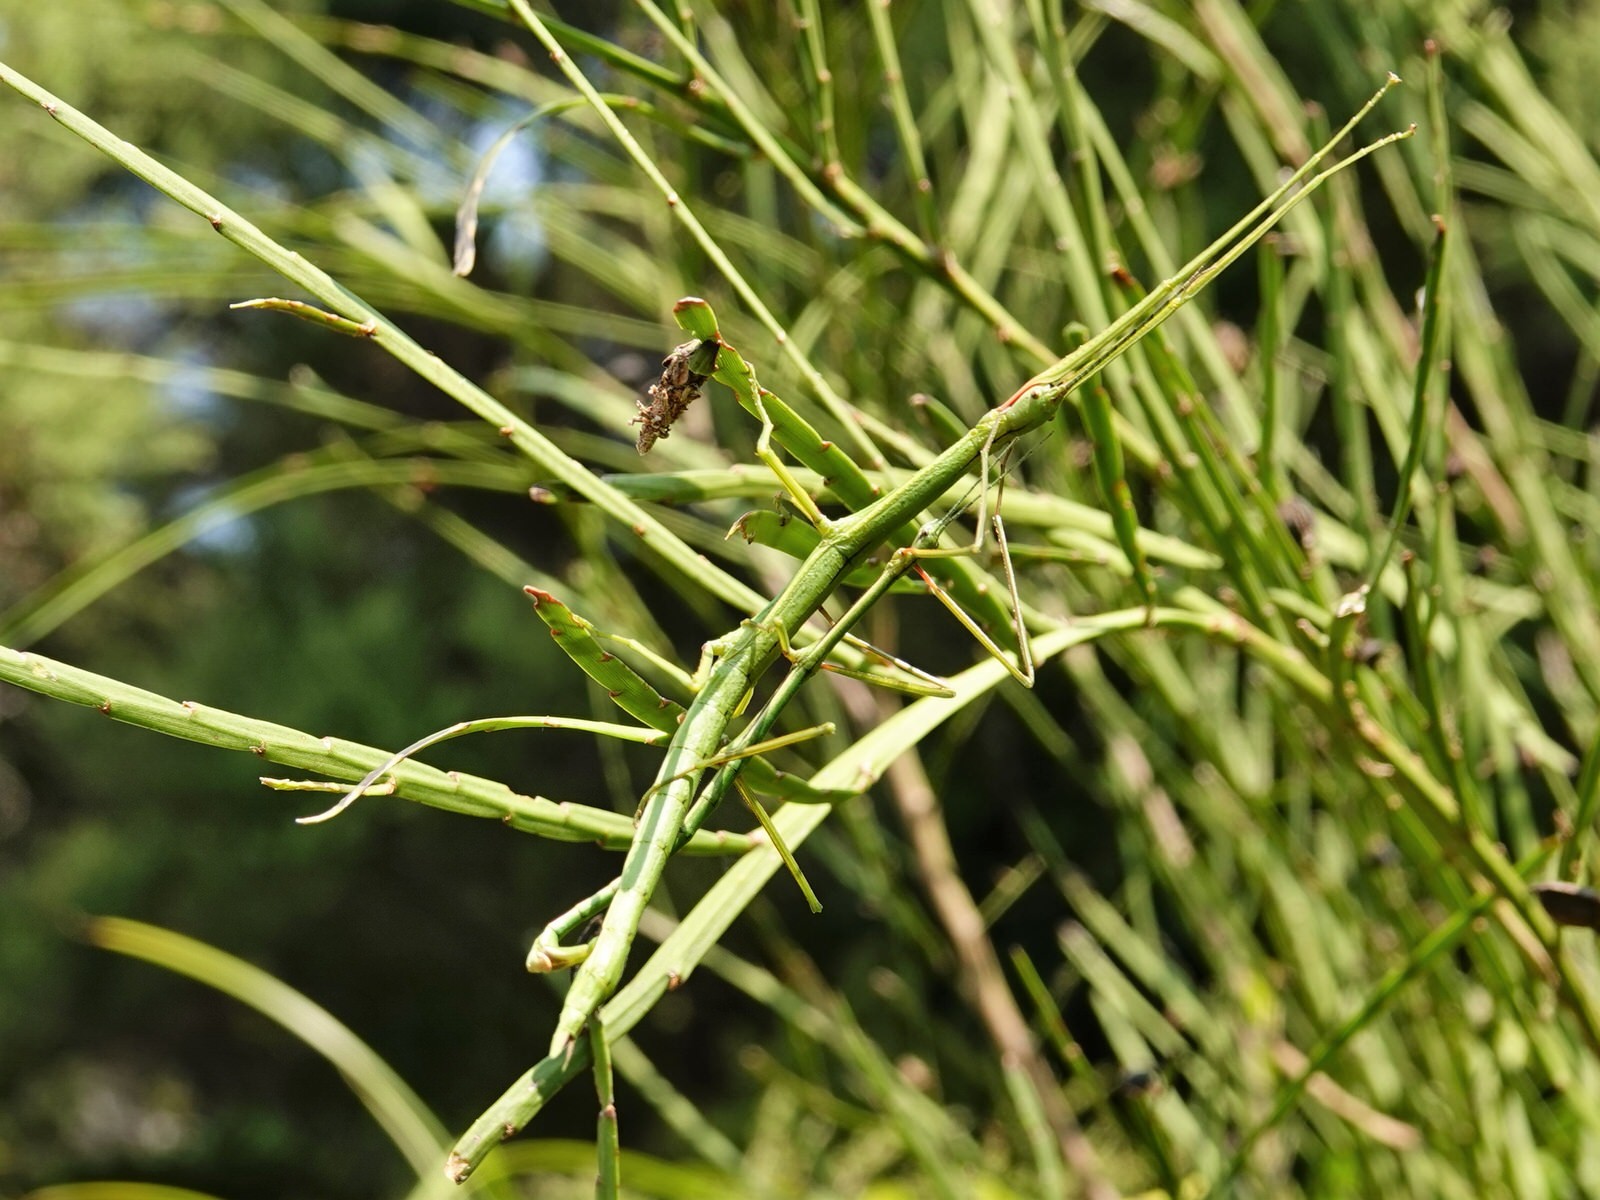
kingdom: Animalia
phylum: Arthropoda
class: Insecta
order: Phasmida
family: Phasmatidae
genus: Clitarchus
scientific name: Clitarchus hookeri
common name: Smooth stick insect
